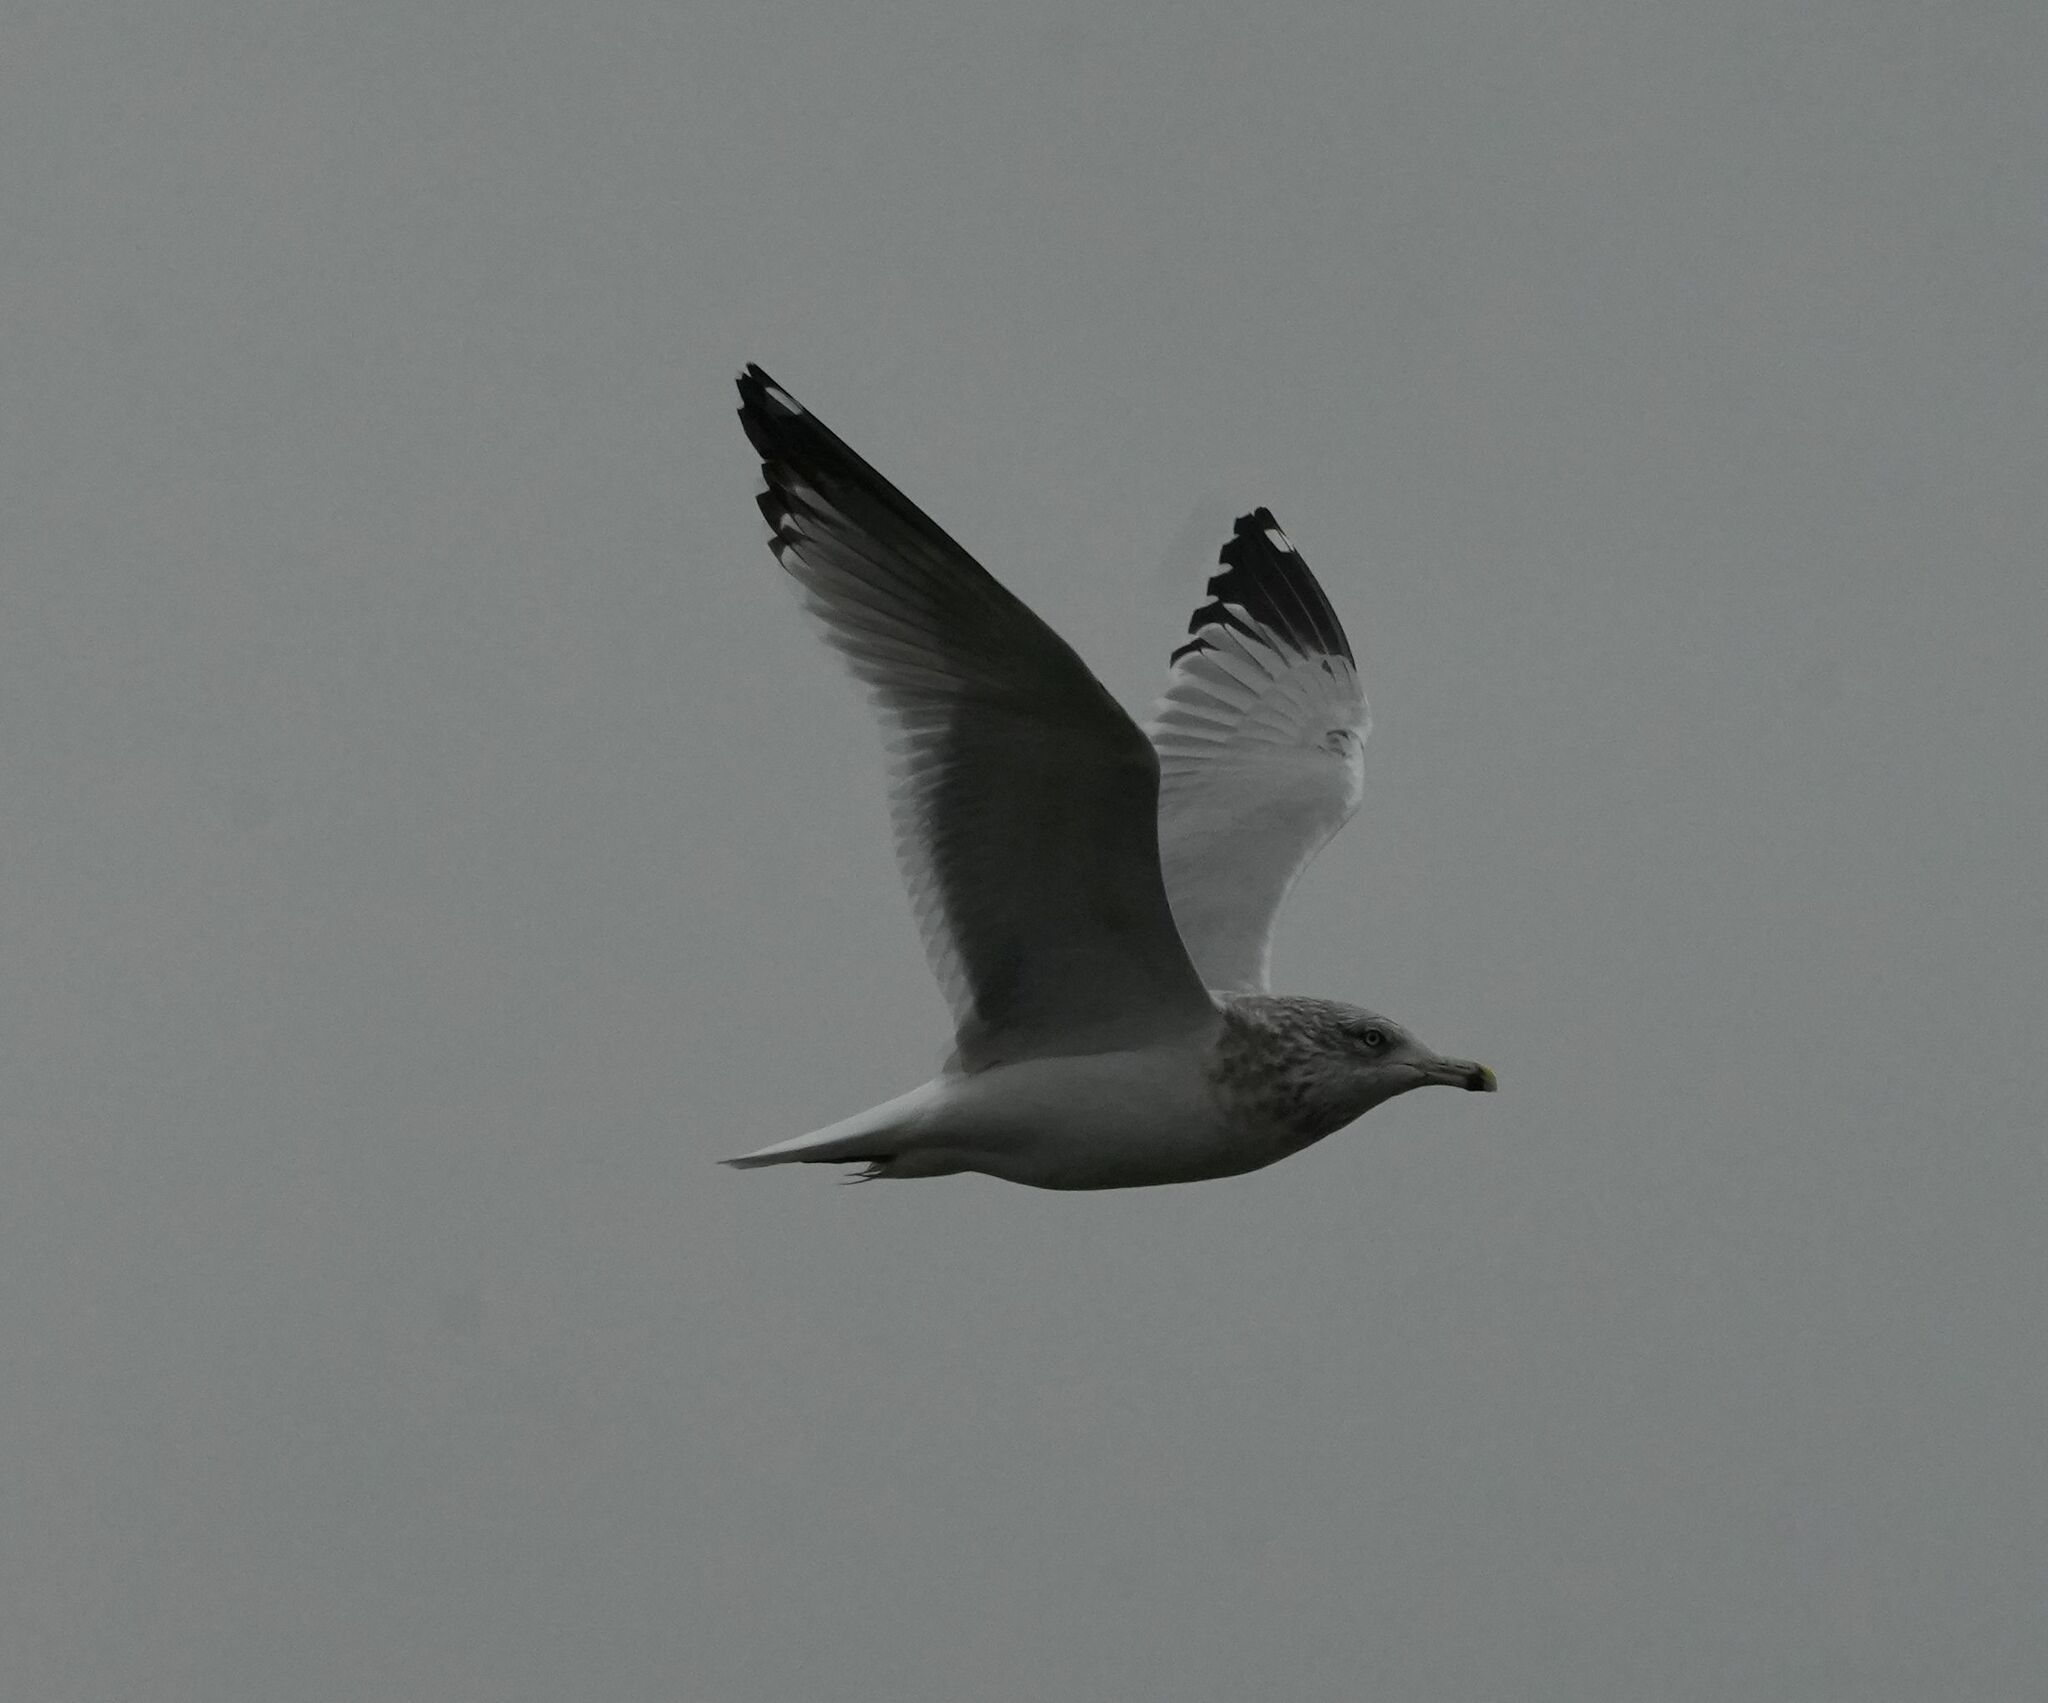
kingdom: Animalia
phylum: Chordata
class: Aves
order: Charadriiformes
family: Laridae
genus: Larus
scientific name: Larus delawarensis
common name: Ring-billed gull
